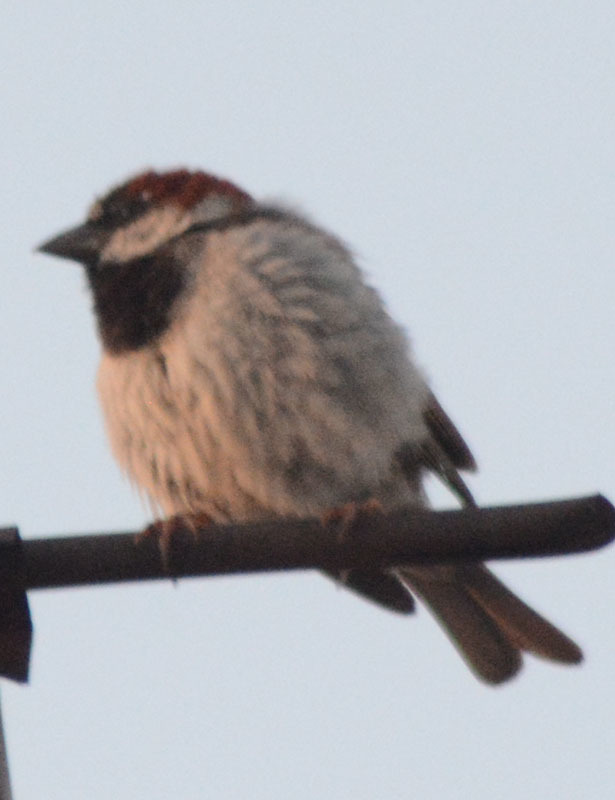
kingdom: Animalia
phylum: Chordata
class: Aves
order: Passeriformes
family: Passeridae
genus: Passer
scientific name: Passer domesticus
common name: House sparrow
